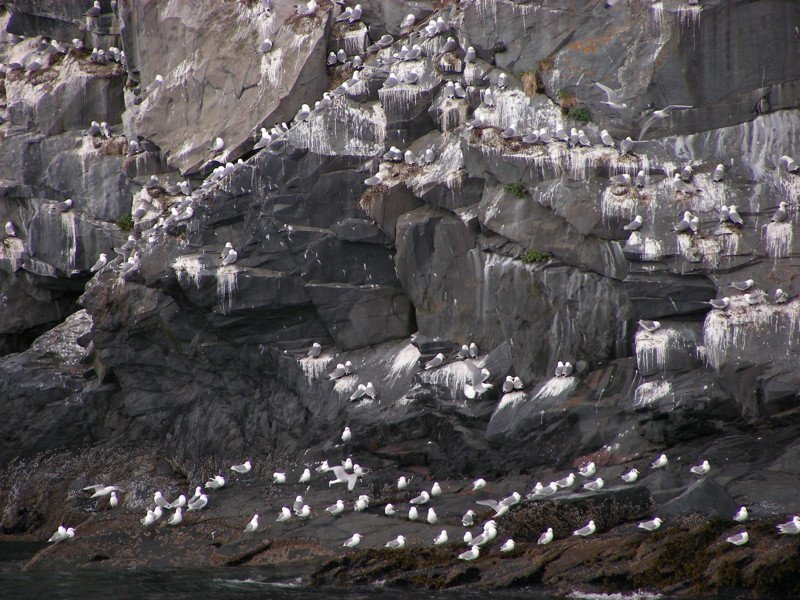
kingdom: Animalia
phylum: Chordata
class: Aves
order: Charadriiformes
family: Laridae
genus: Rissa
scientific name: Rissa tridactyla
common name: Black-legged kittiwake
